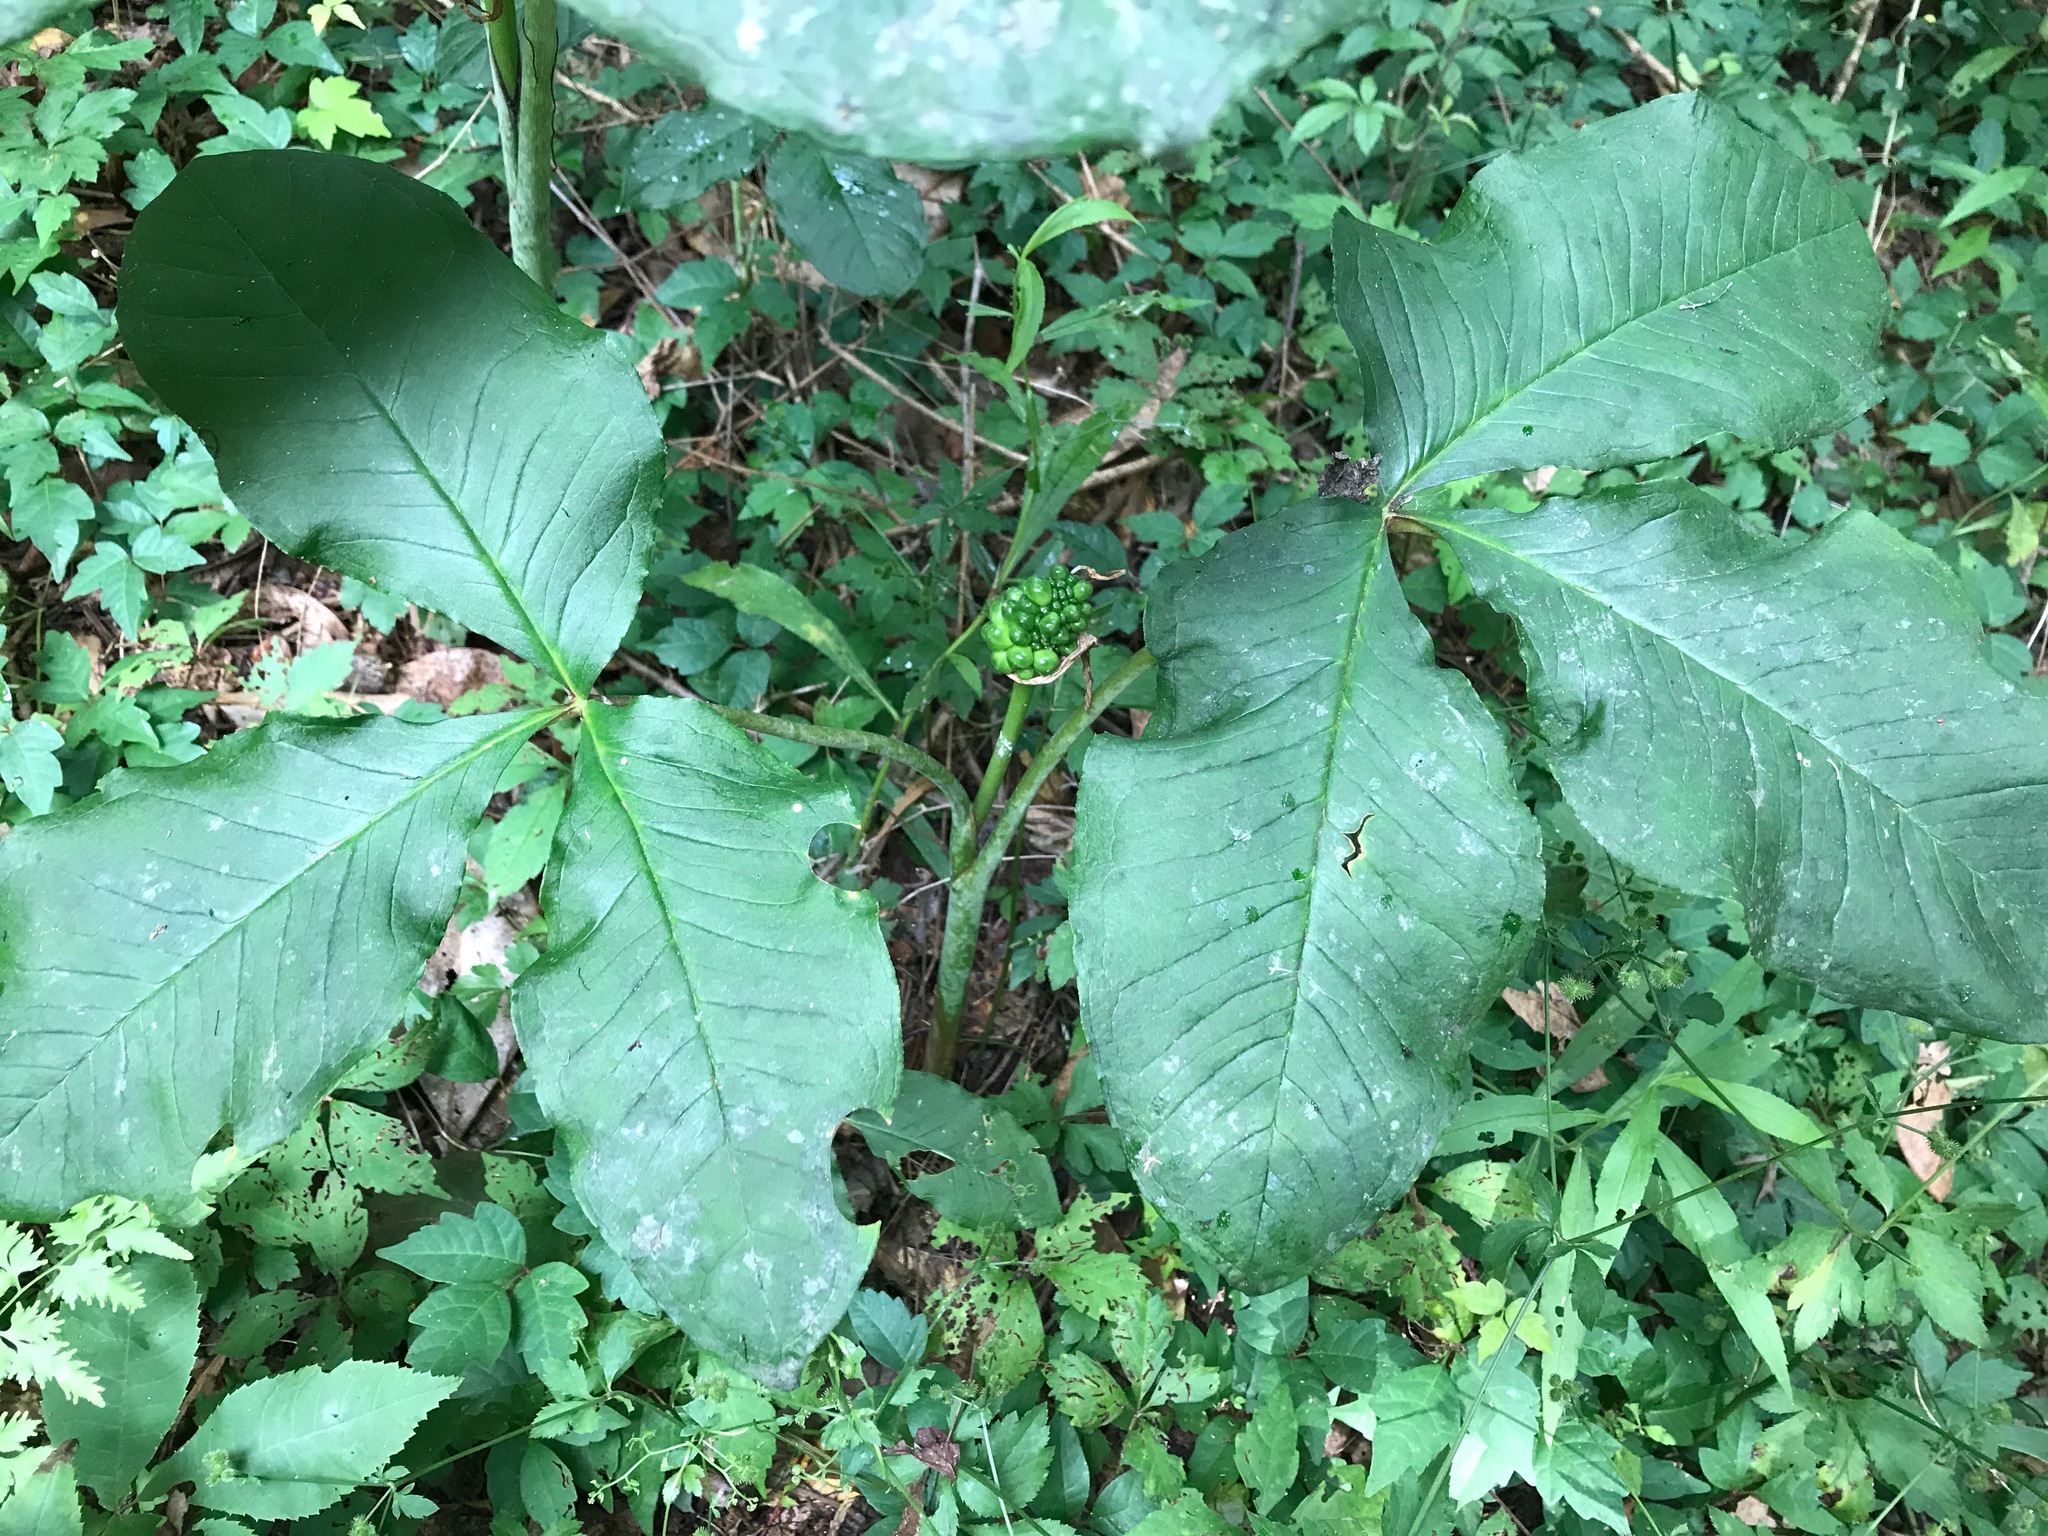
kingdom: Plantae
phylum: Tracheophyta
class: Liliopsida
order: Alismatales
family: Araceae
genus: Arisaema
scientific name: Arisaema triphyllum
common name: Jack-in-the-pulpit
